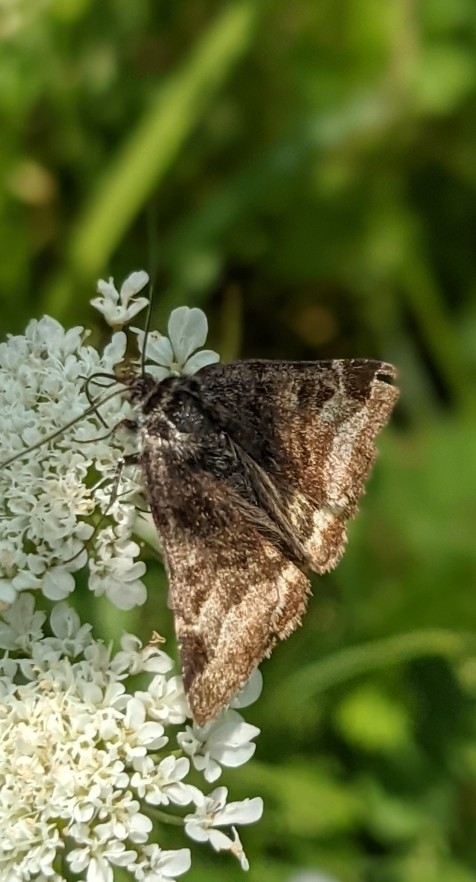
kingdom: Animalia
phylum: Arthropoda
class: Insecta
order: Lepidoptera
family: Erebidae
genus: Euclidia
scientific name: Euclidia glyphica
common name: Burnet companion
